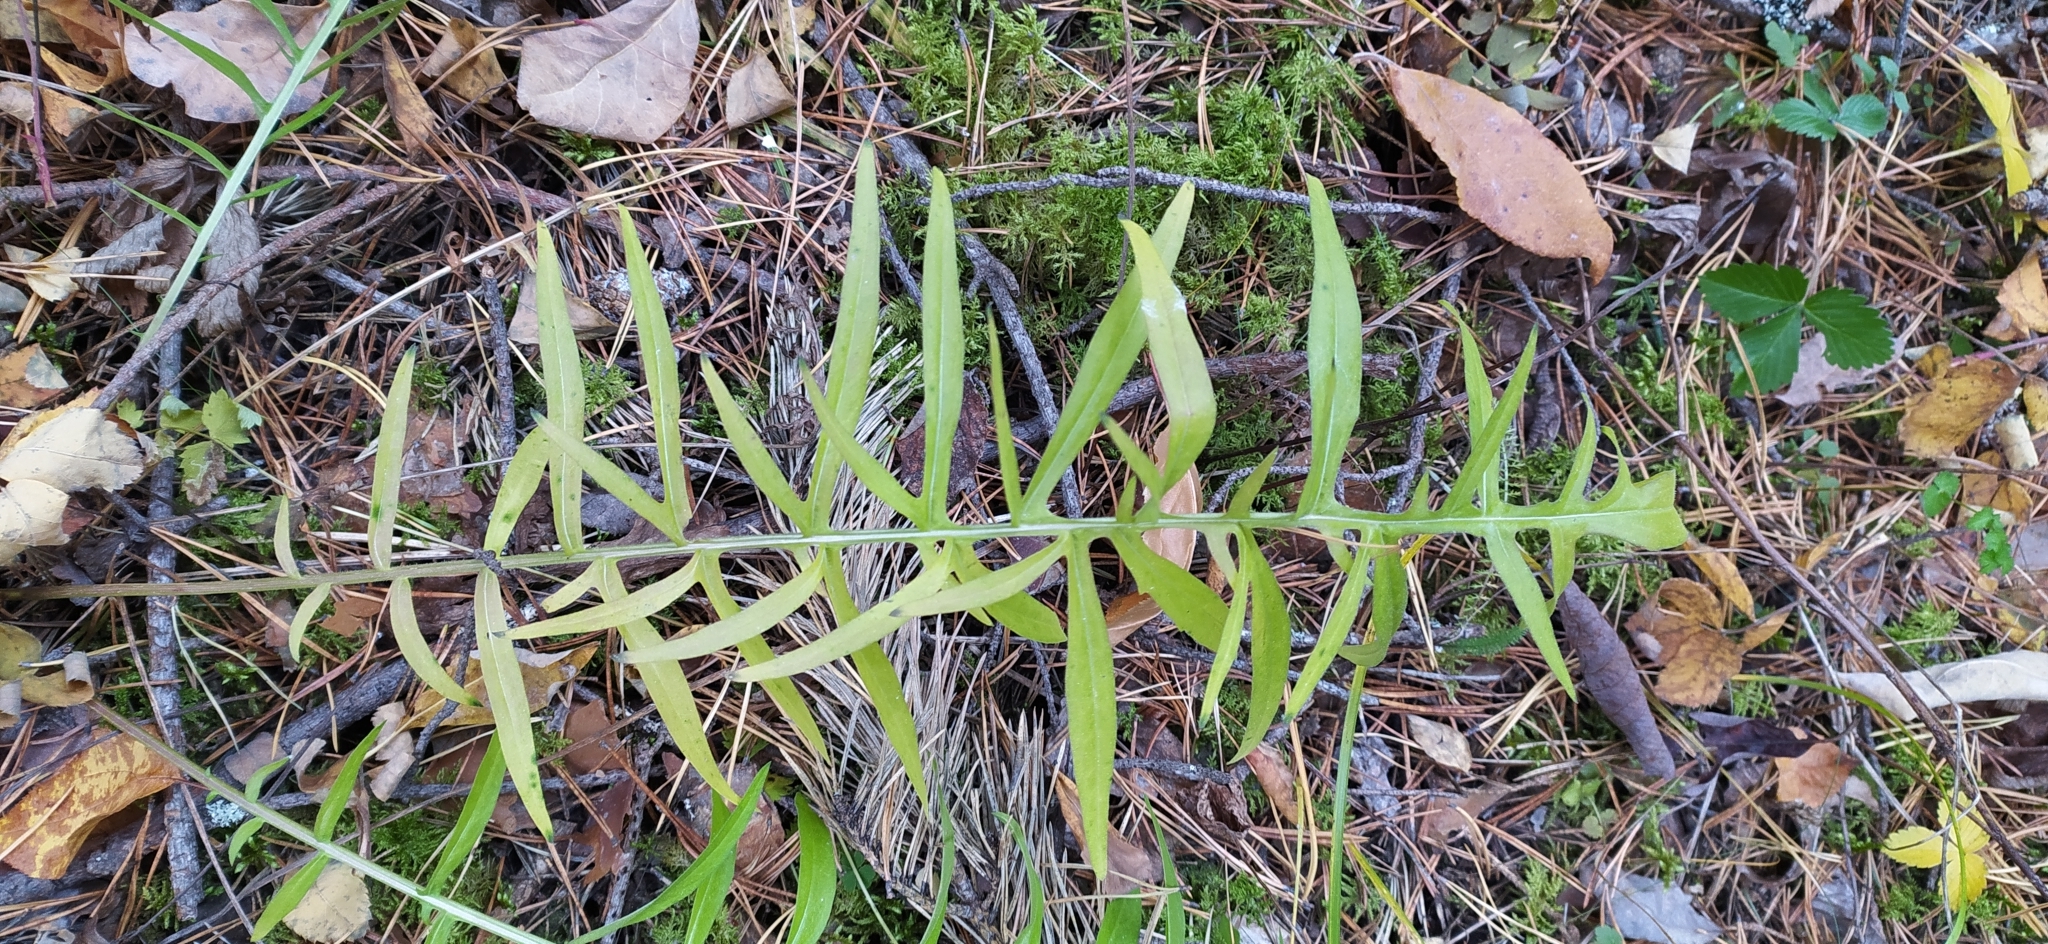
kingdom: Plantae
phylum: Tracheophyta
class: Magnoliopsida
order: Asterales
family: Asteraceae
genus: Centaurea
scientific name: Centaurea scabiosa
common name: Greater knapweed
